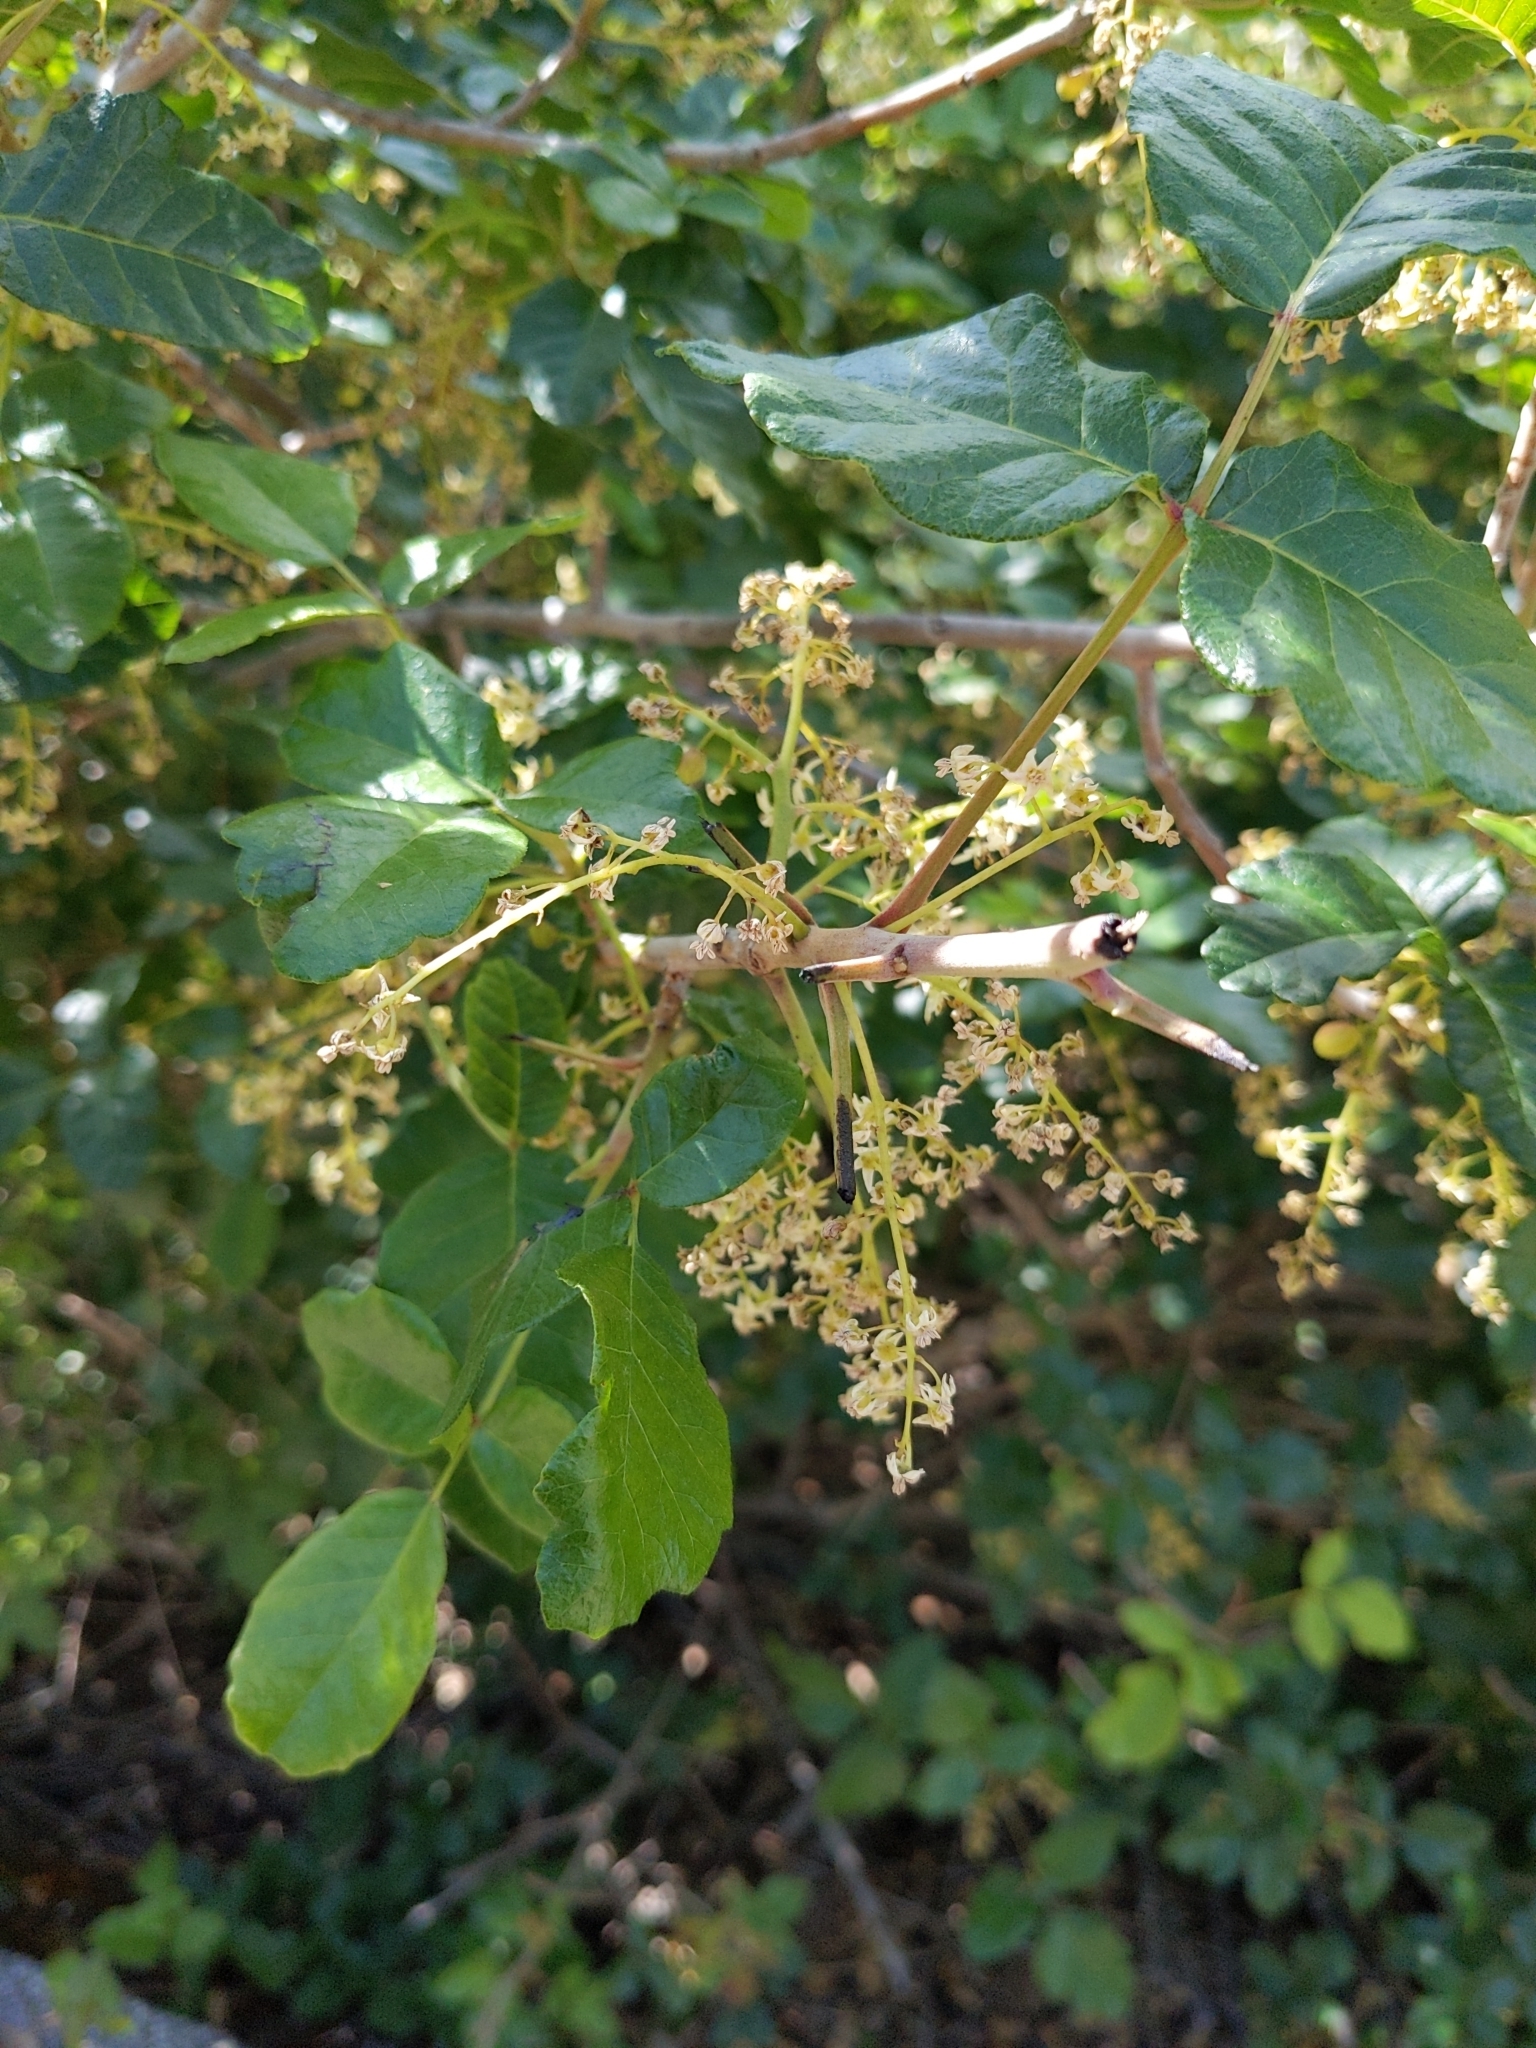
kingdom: Plantae
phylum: Tracheophyta
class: Magnoliopsida
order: Sapindales
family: Anacardiaceae
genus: Toxicodendron
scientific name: Toxicodendron diversilobum
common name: Pacific poison-oak
